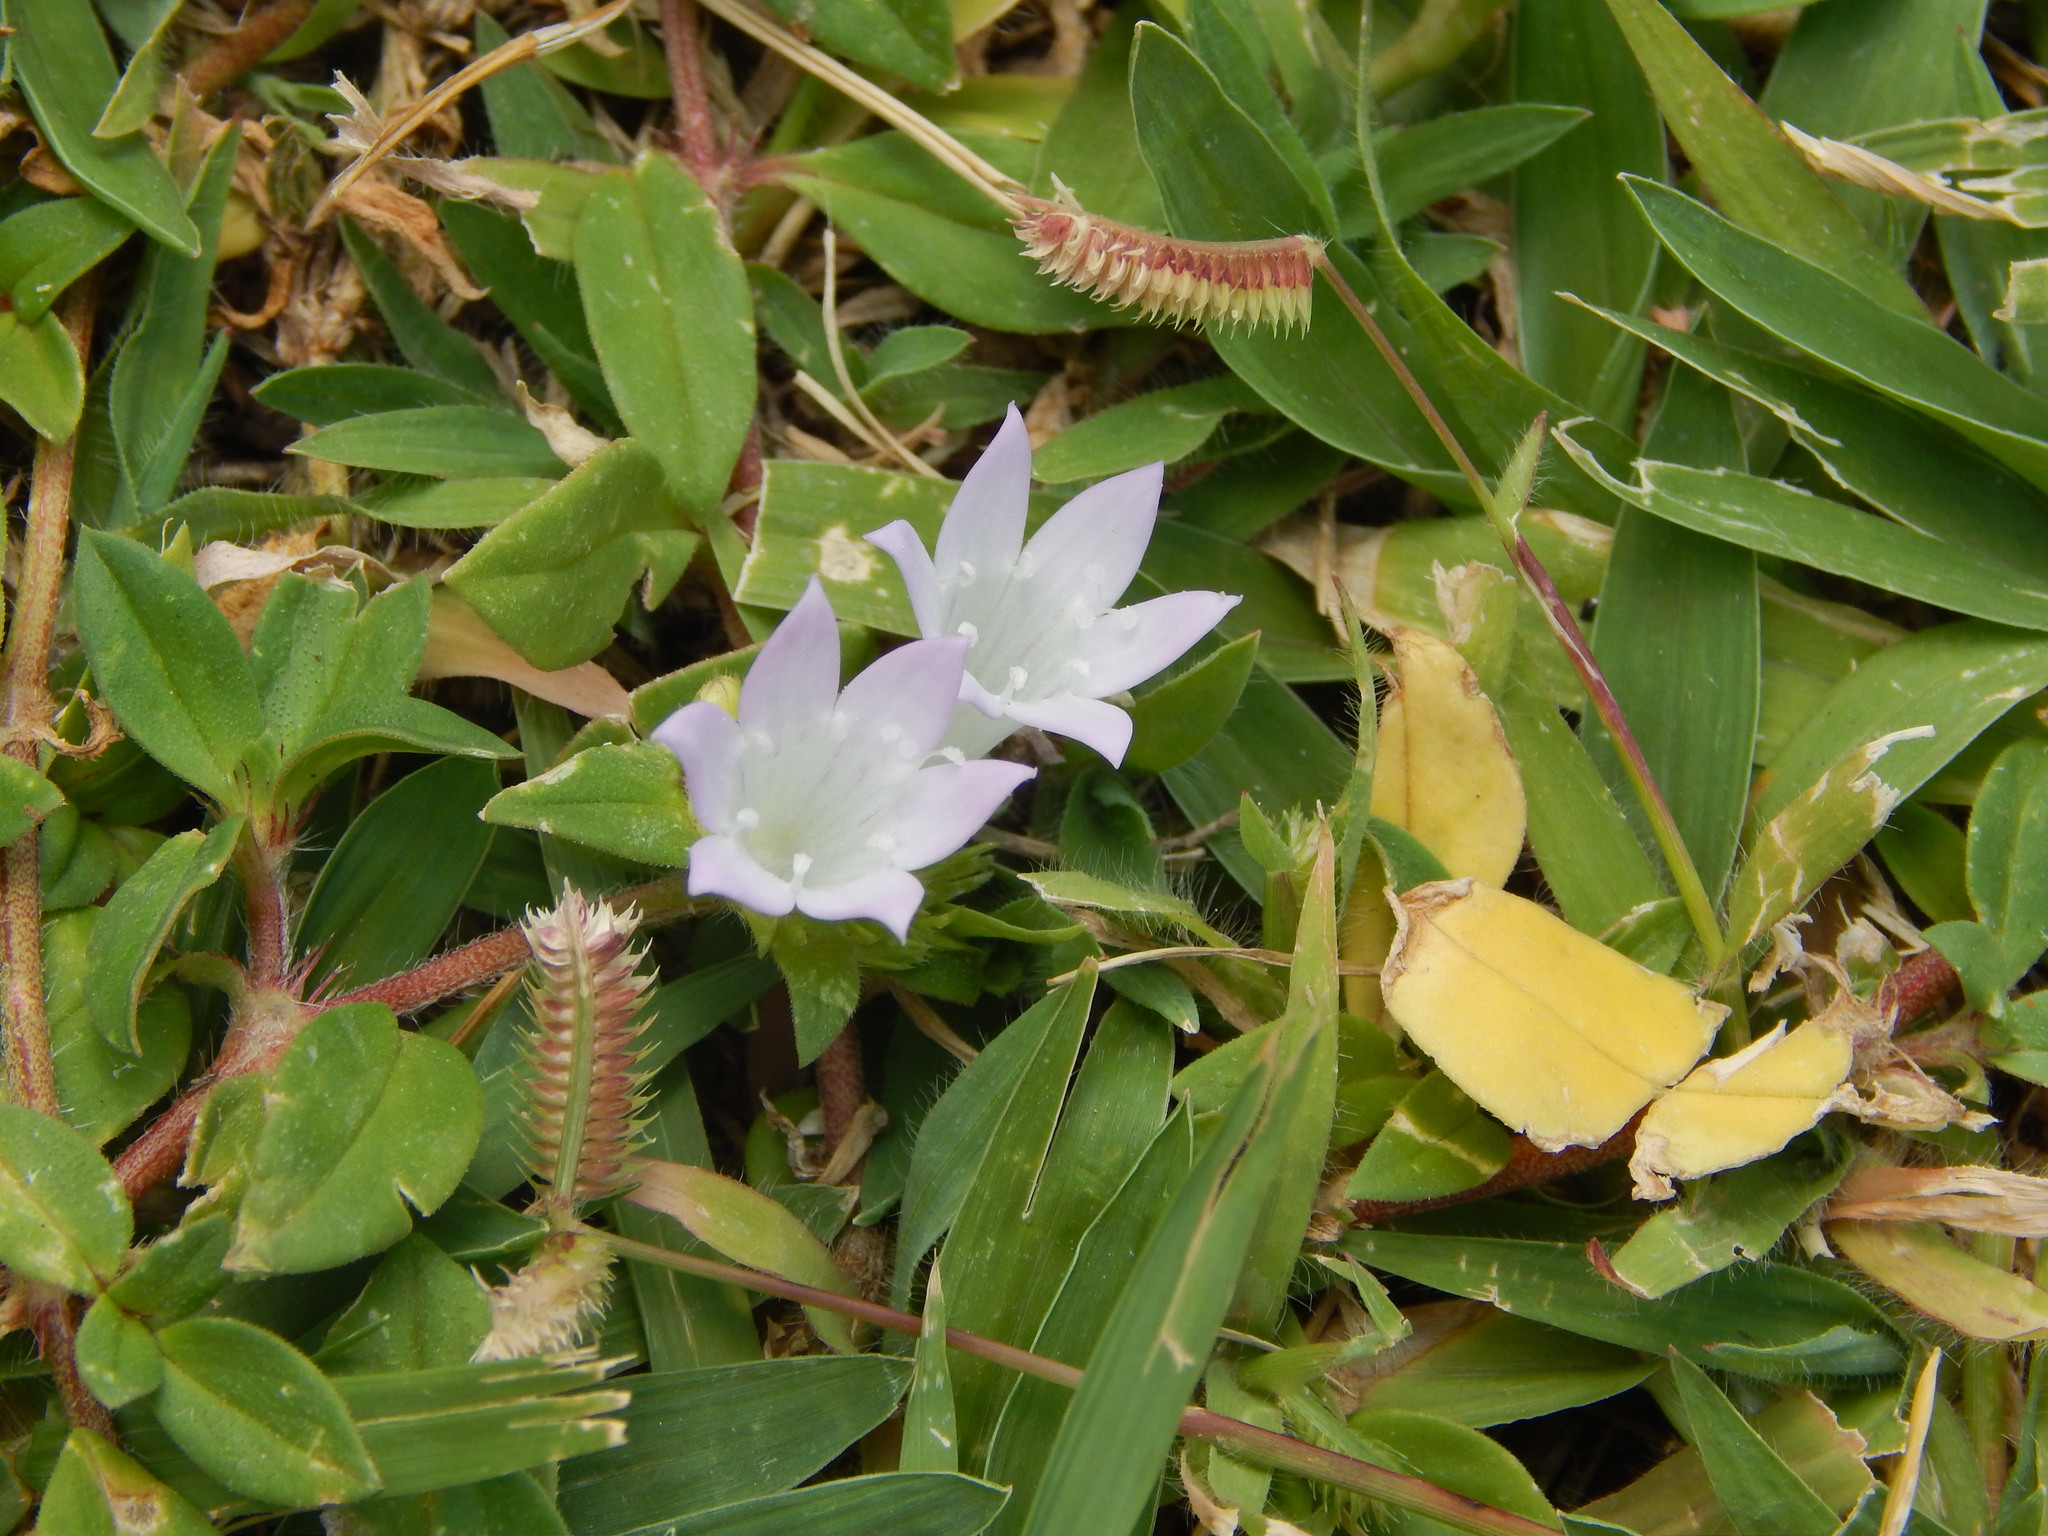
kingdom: Plantae
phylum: Tracheophyta
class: Magnoliopsida
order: Gentianales
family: Rubiaceae
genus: Richardia
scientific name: Richardia grandiflora
